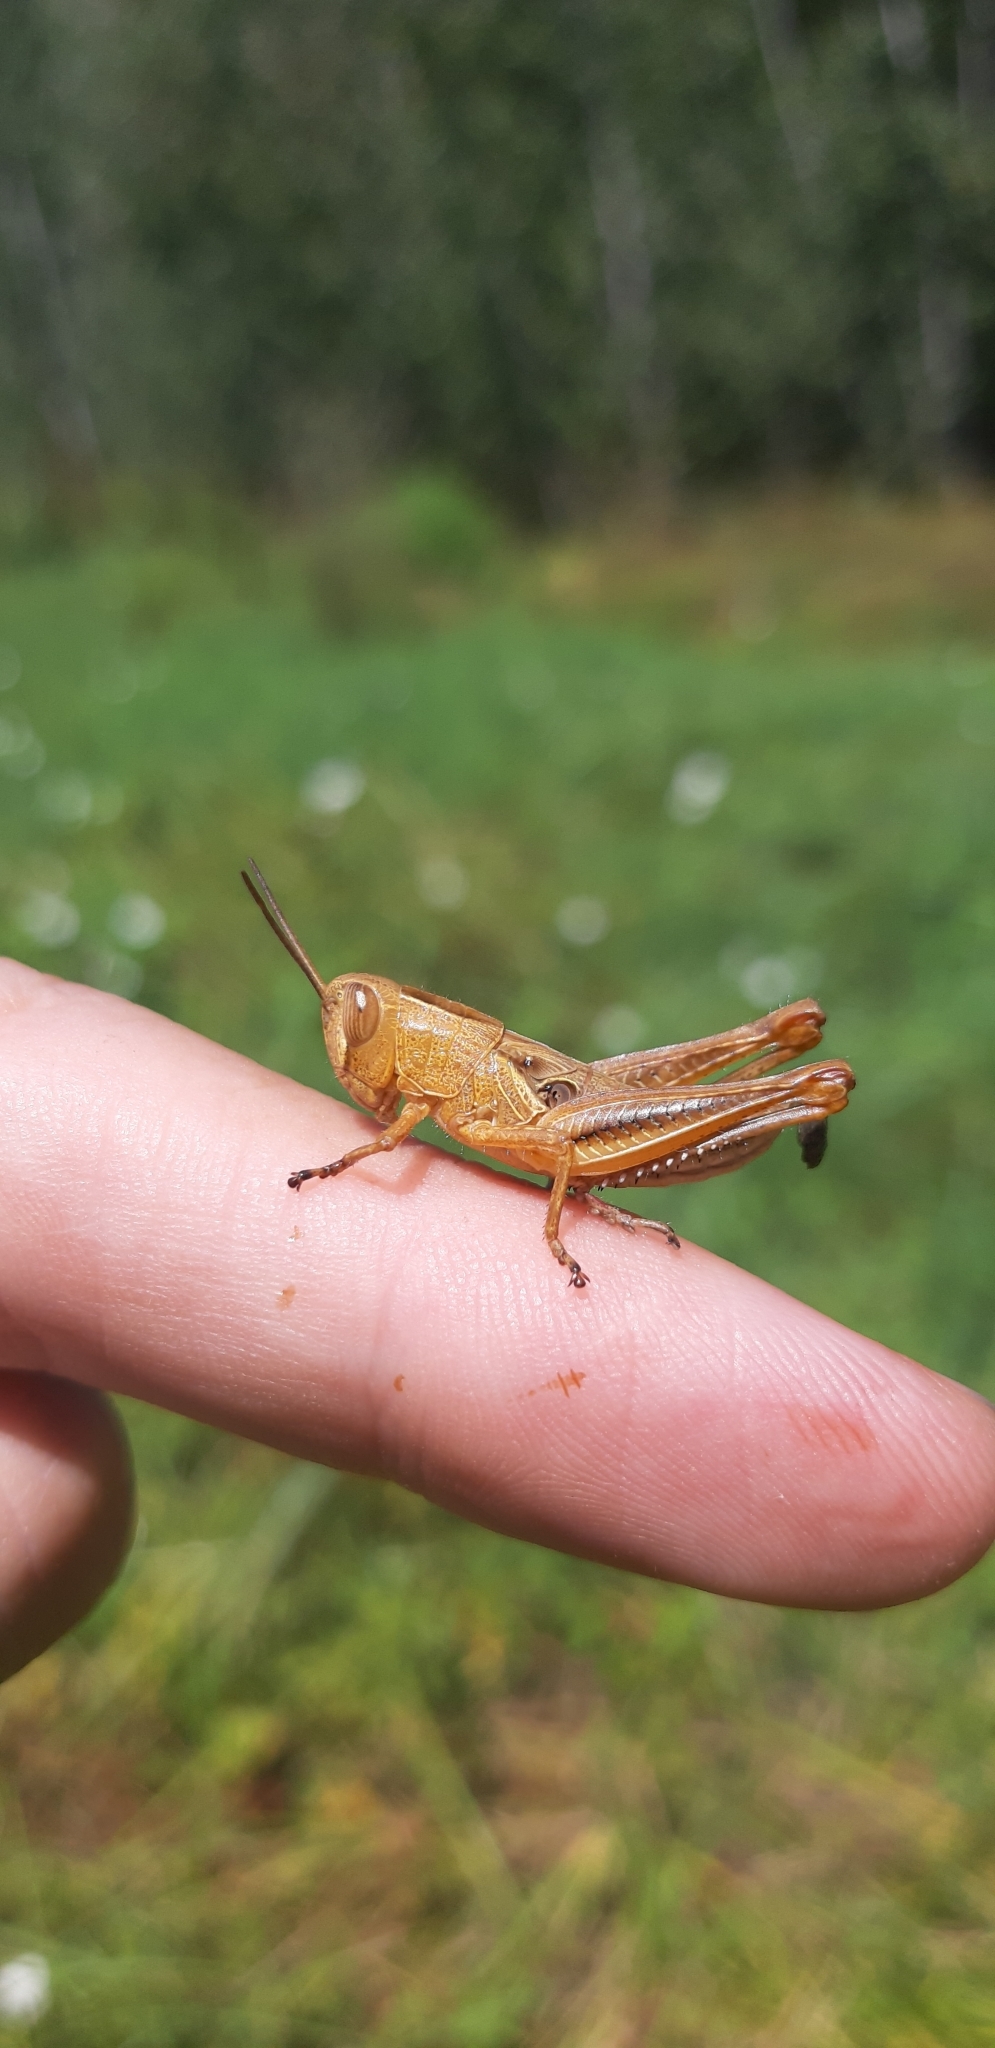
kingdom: Animalia
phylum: Arthropoda
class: Insecta
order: Orthoptera
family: Acrididae
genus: Eyprepocnemis
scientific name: Eyprepocnemis plorans
